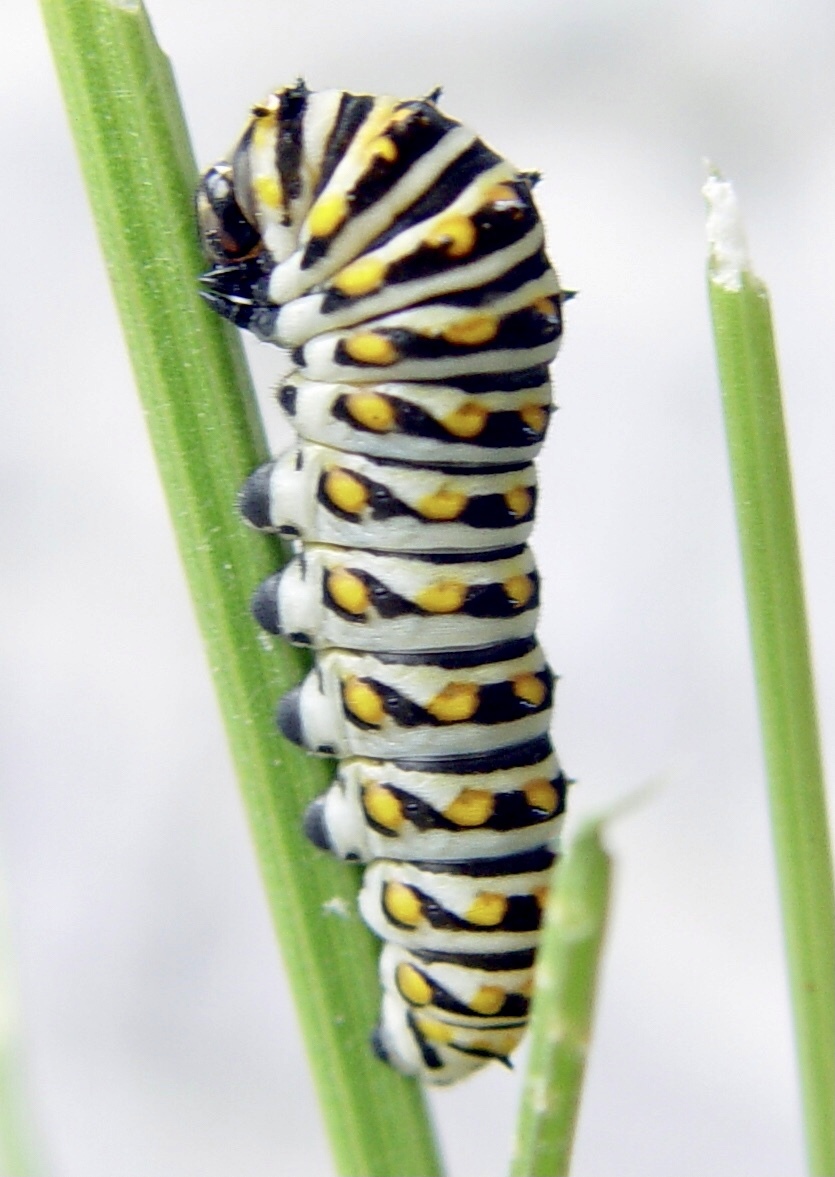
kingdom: Animalia
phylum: Arthropoda
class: Insecta
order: Lepidoptera
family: Papilionidae
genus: Papilio
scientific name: Papilio polyxenes
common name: Black swallowtail
